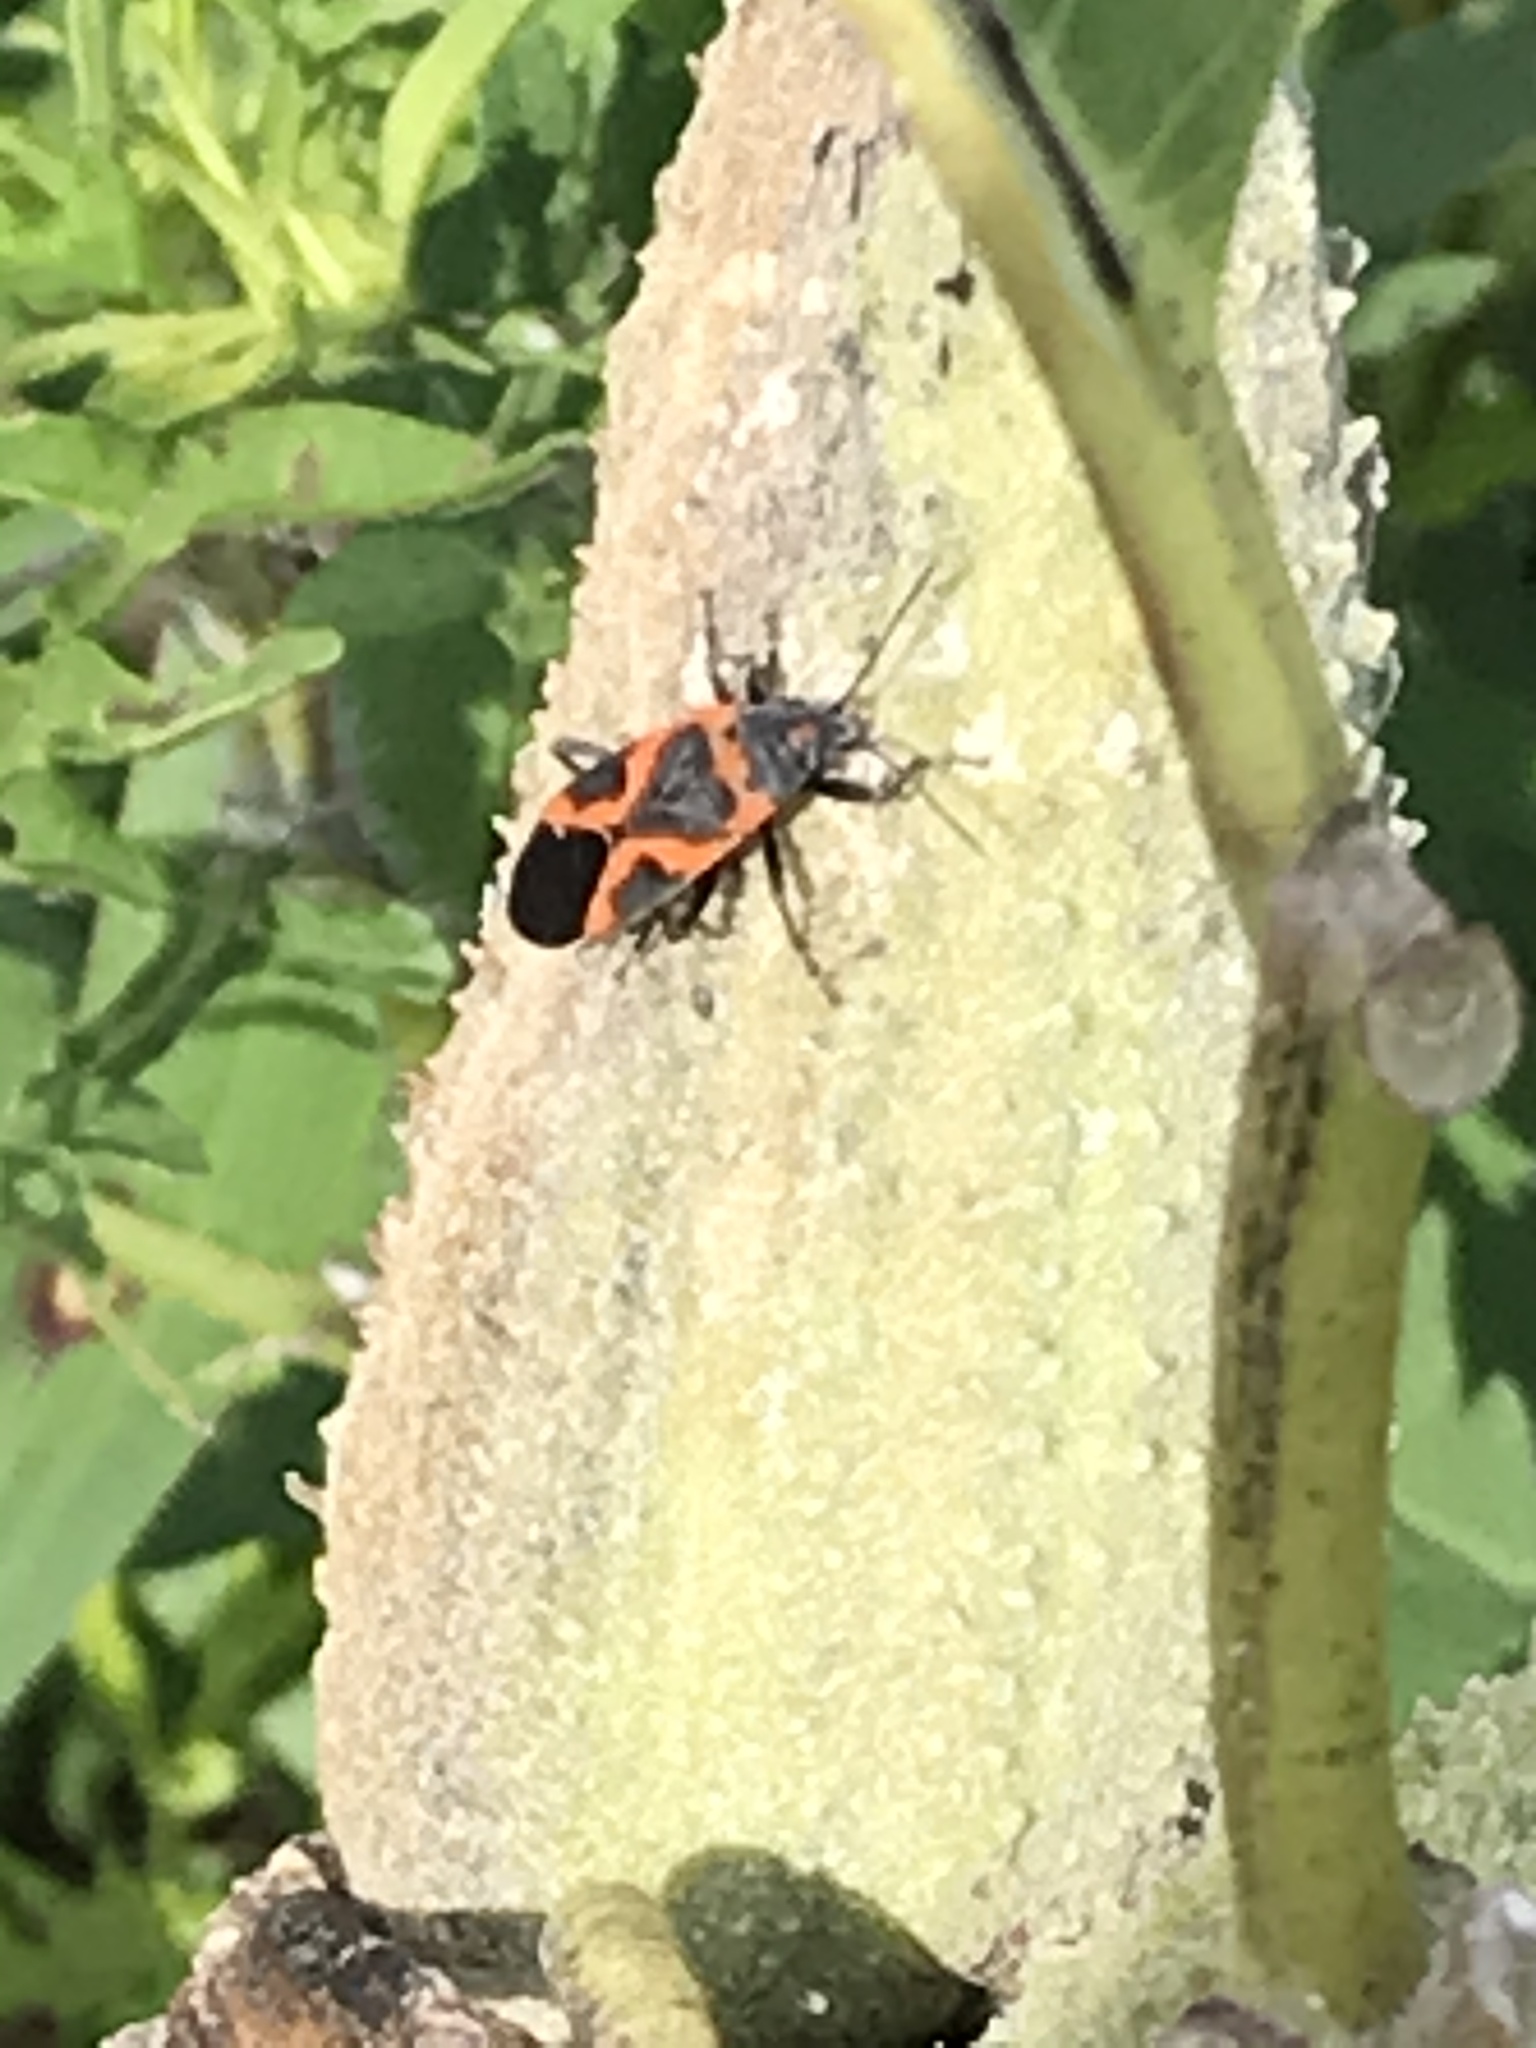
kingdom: Animalia
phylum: Arthropoda
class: Insecta
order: Hemiptera
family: Lygaeidae
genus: Lygaeus
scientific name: Lygaeus kalmii
